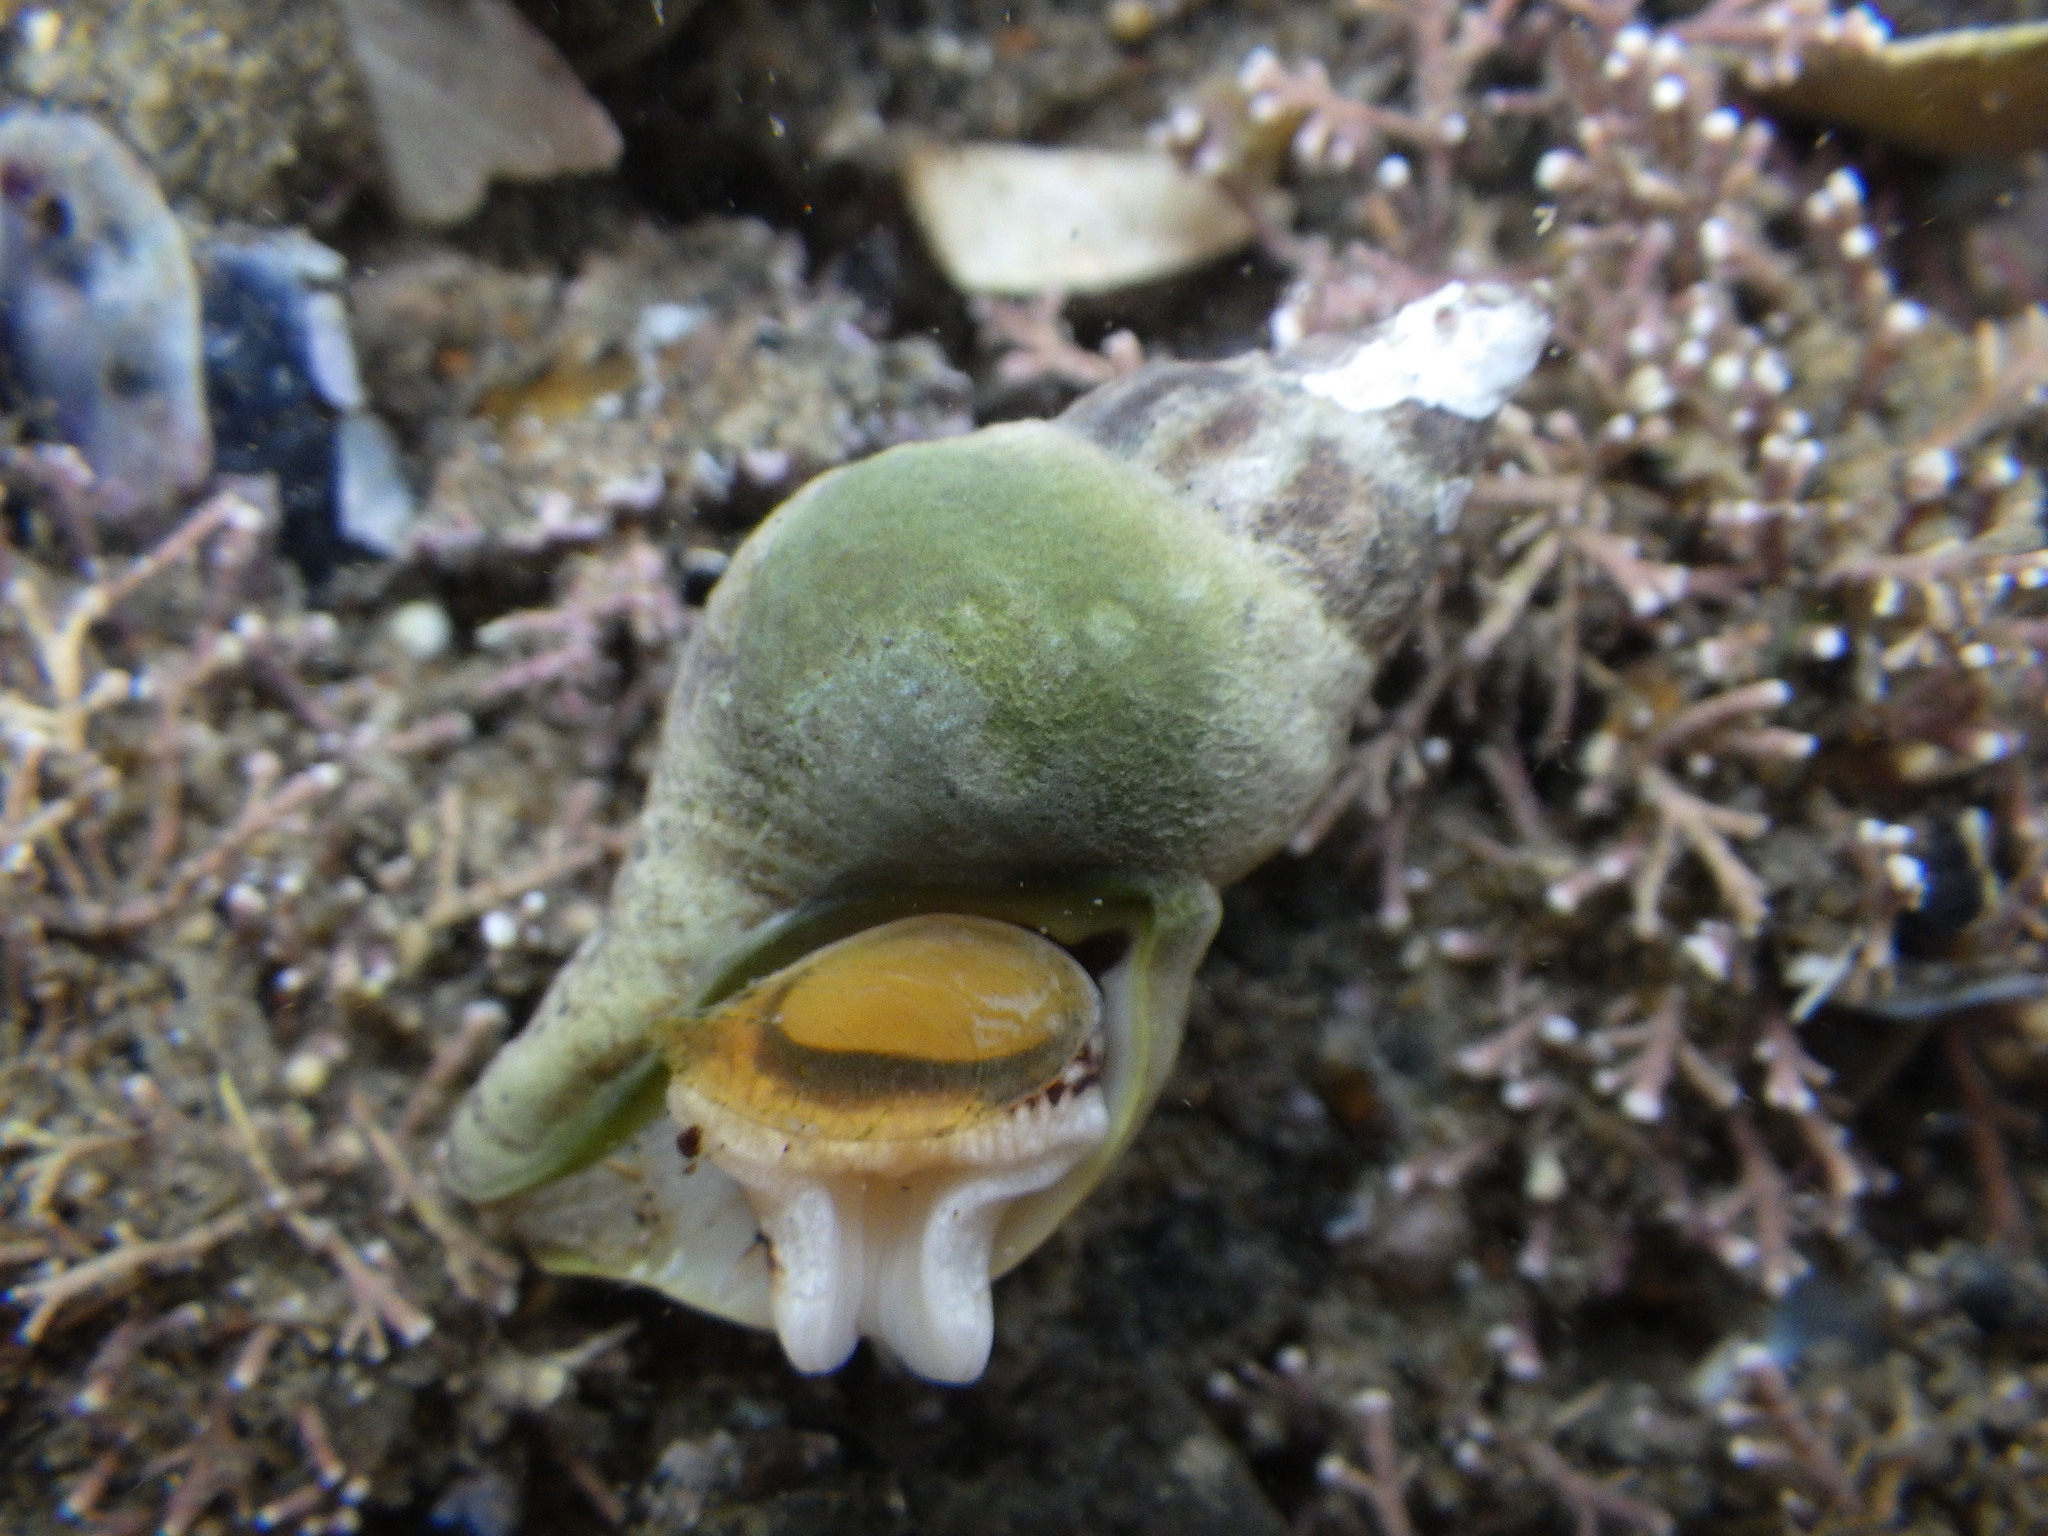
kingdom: Animalia
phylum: Mollusca
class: Gastropoda
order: Neogastropoda
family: Tudiclidae
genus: Buccinulum
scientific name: Buccinulum vittatum
